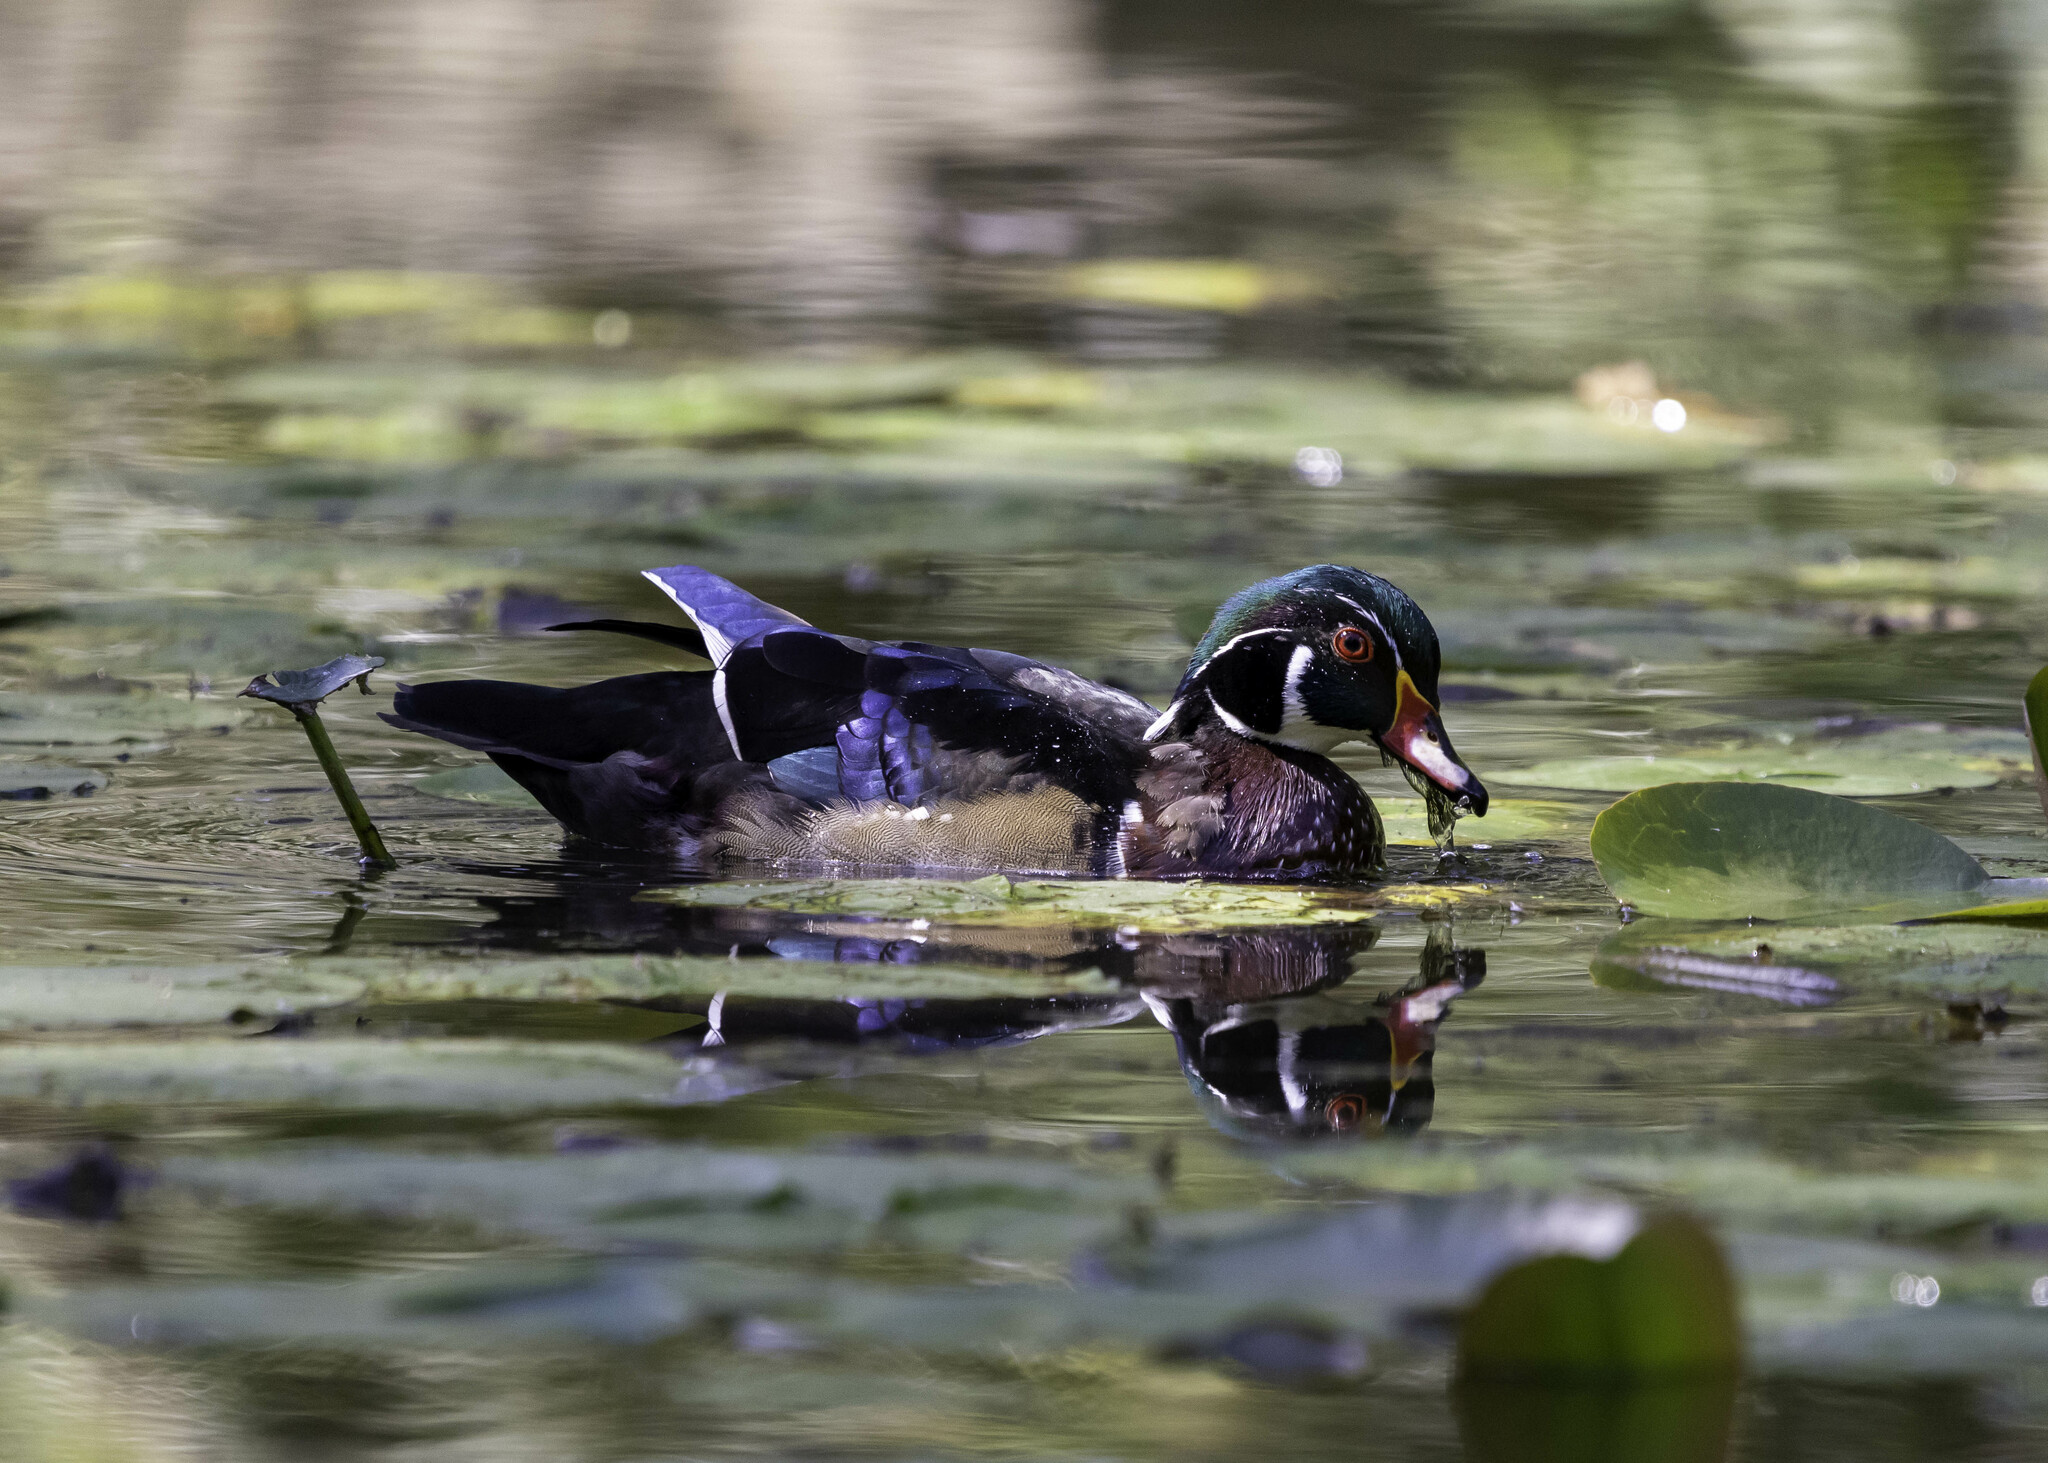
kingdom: Animalia
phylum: Chordata
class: Aves
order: Anseriformes
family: Anatidae
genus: Aix
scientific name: Aix sponsa
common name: Wood duck
